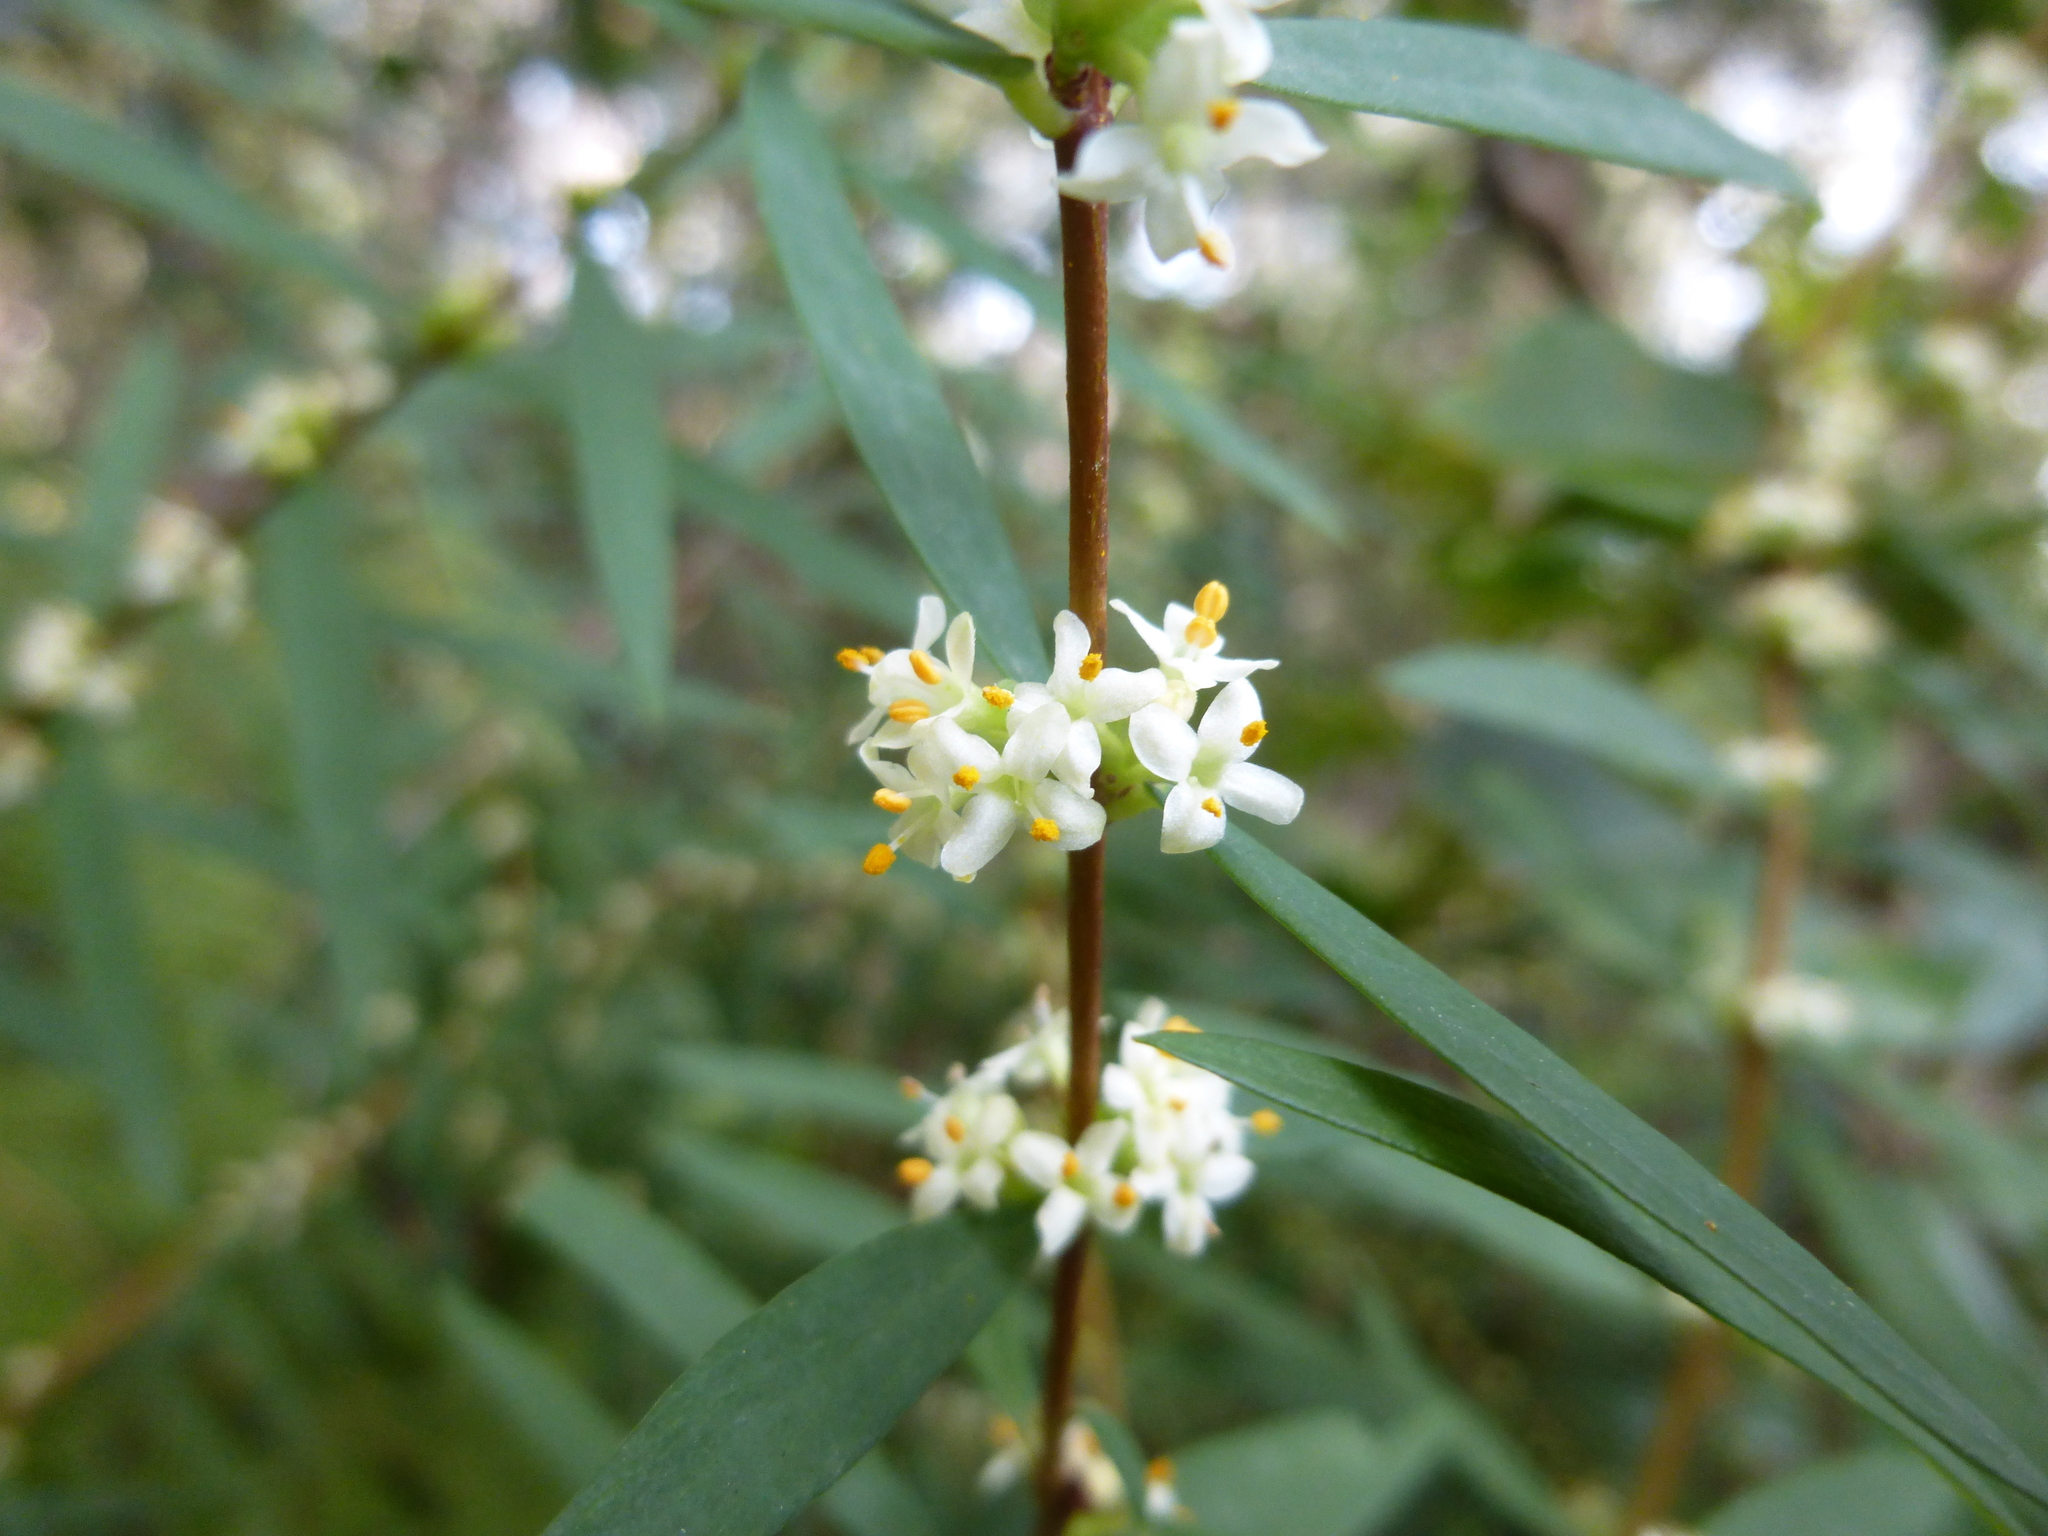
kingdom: Plantae
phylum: Tracheophyta
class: Magnoliopsida
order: Malvales
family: Thymelaeaceae
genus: Pimelea
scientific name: Pimelea axiflora
